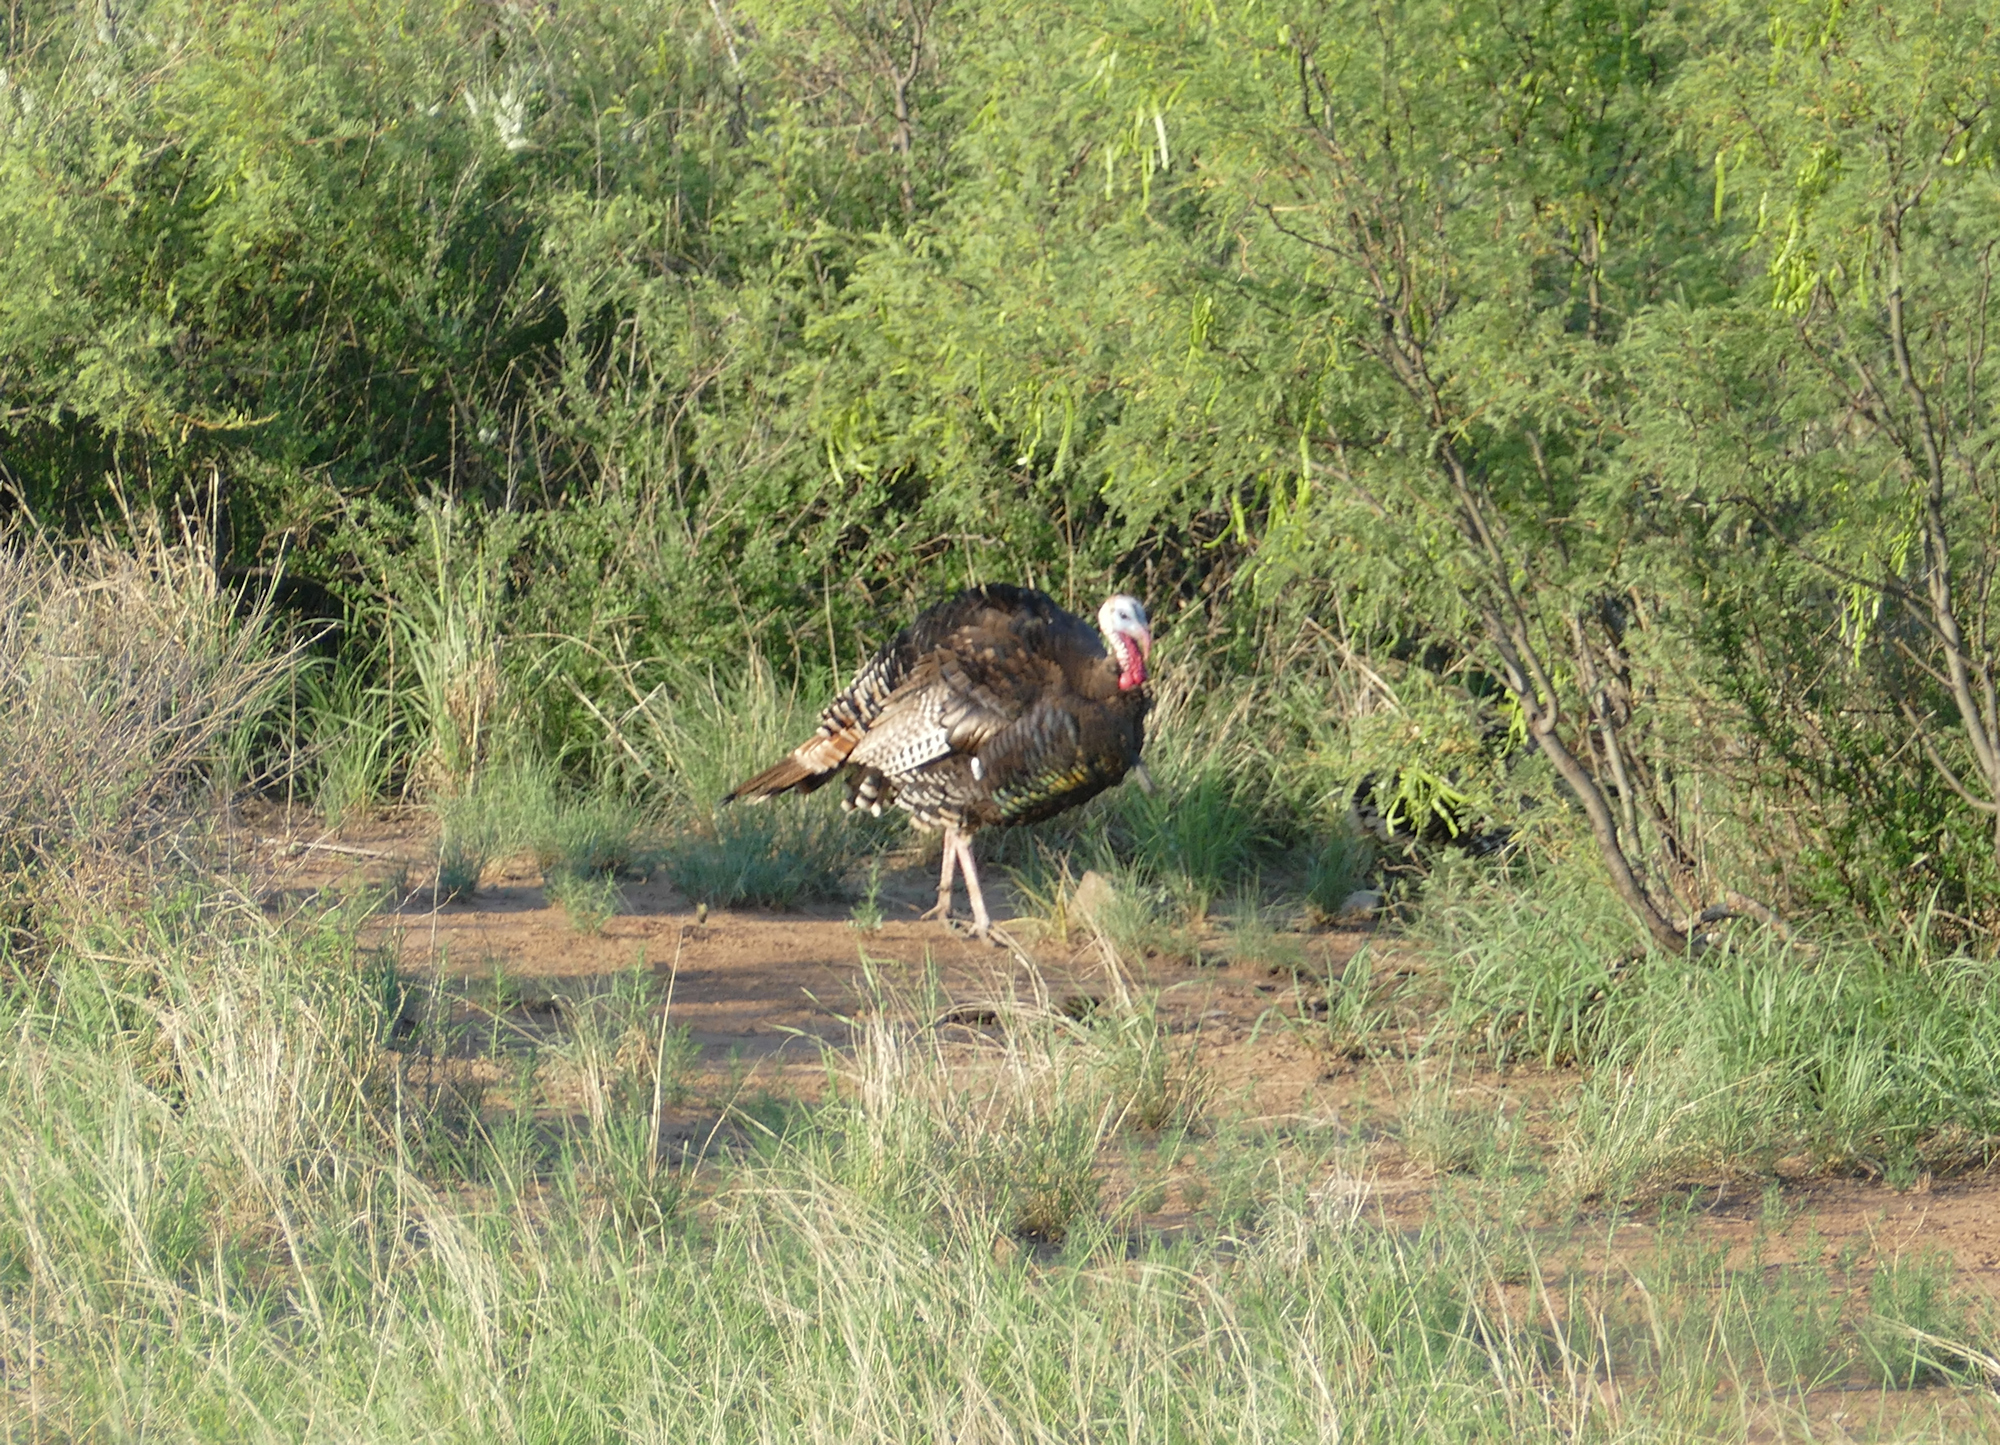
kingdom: Animalia
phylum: Chordata
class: Aves
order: Galliformes
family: Phasianidae
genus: Meleagris
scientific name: Meleagris gallopavo
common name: Wild turkey
